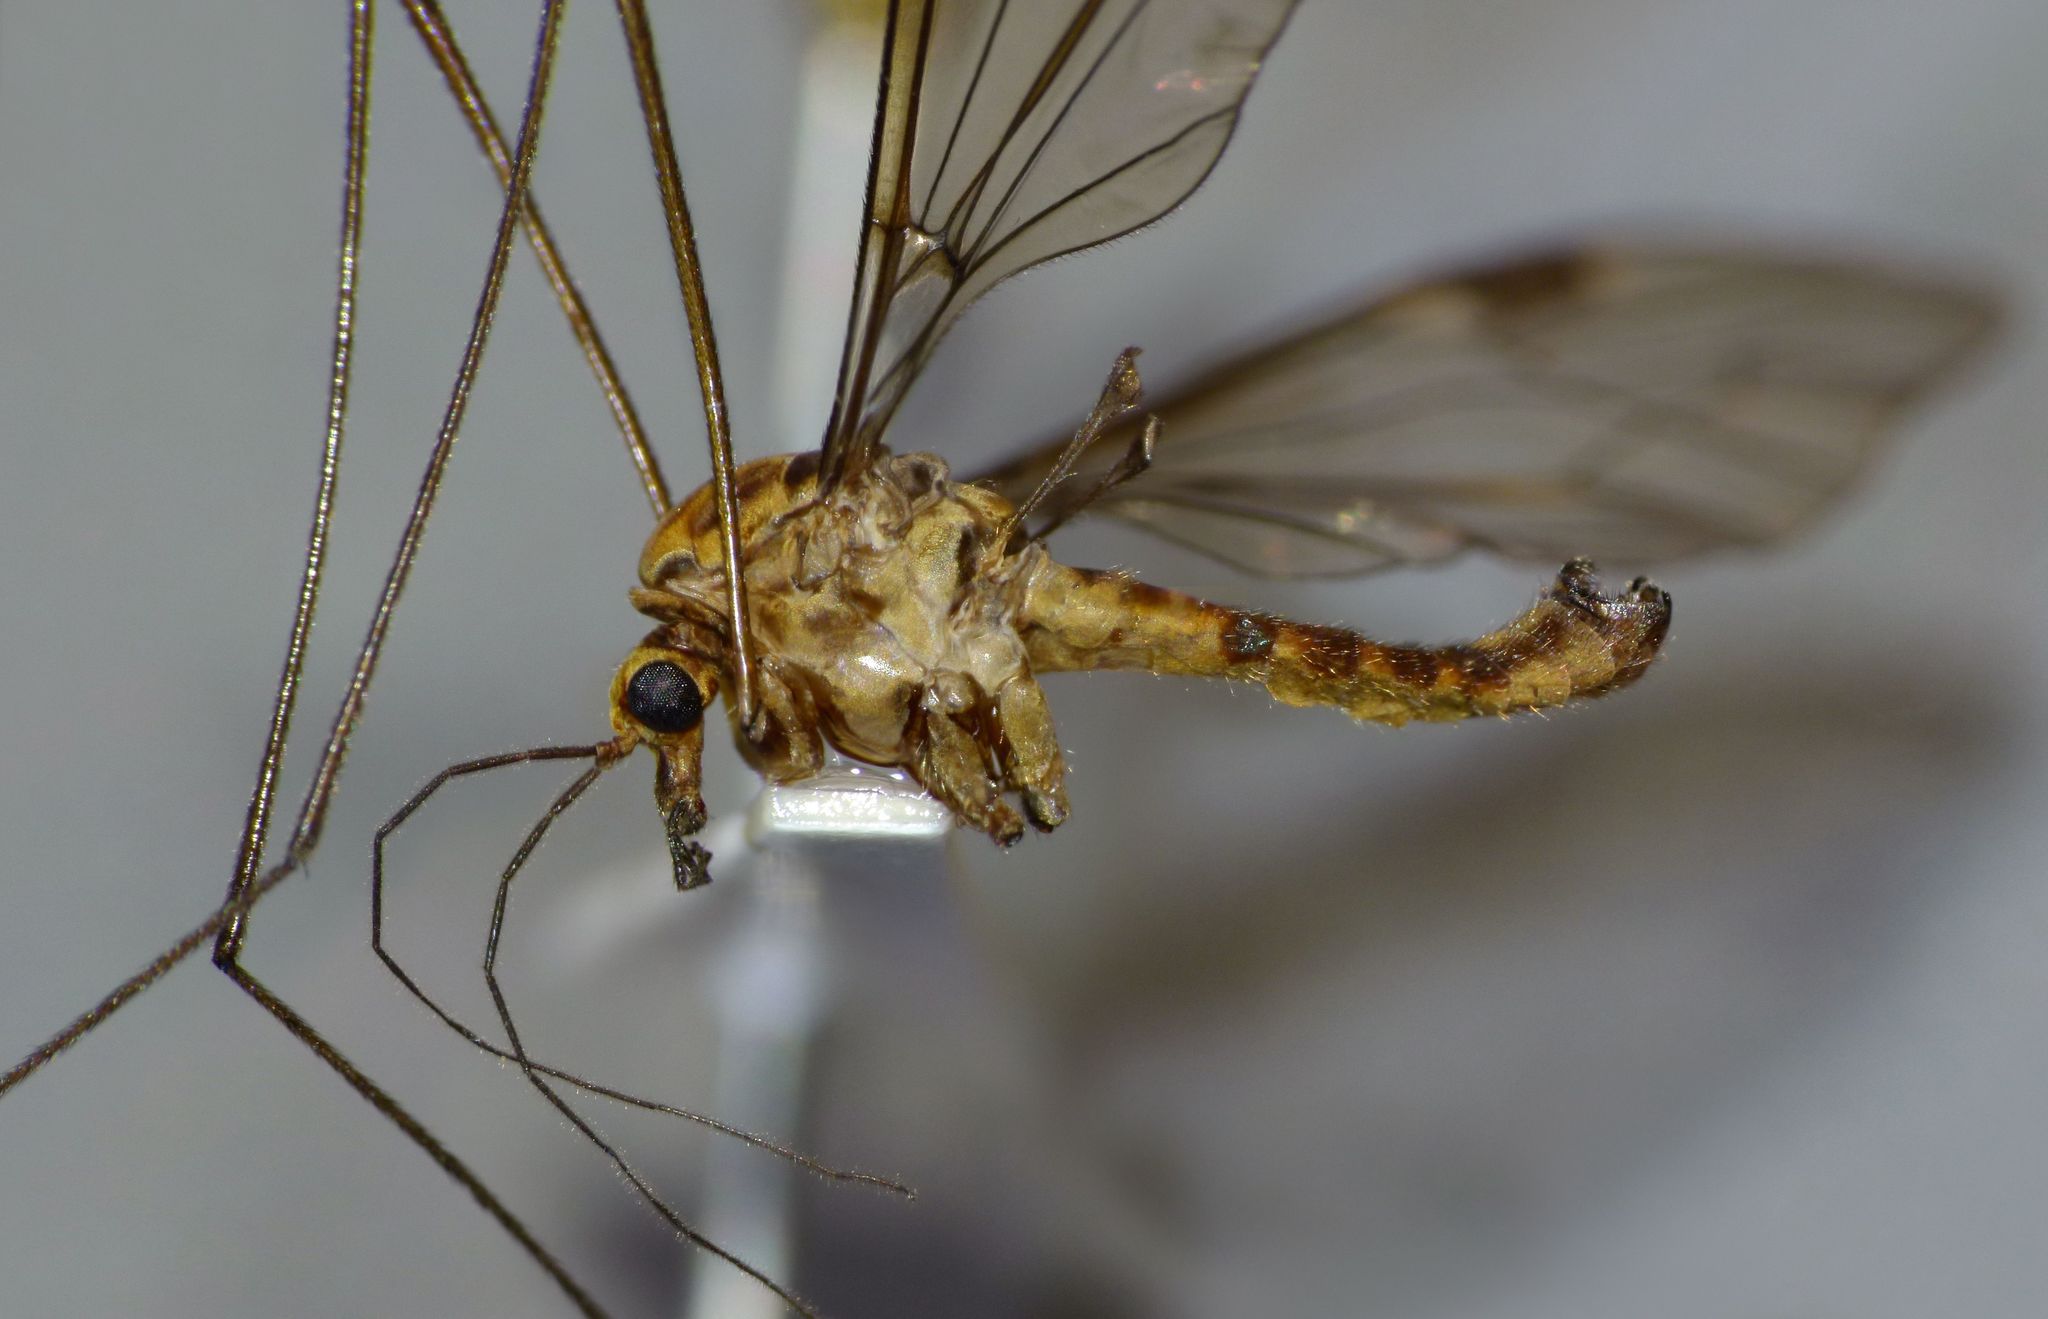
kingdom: Animalia
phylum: Arthropoda
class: Insecta
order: Diptera
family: Tipulidae
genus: Leptotarsus
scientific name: Leptotarsus obliquus
